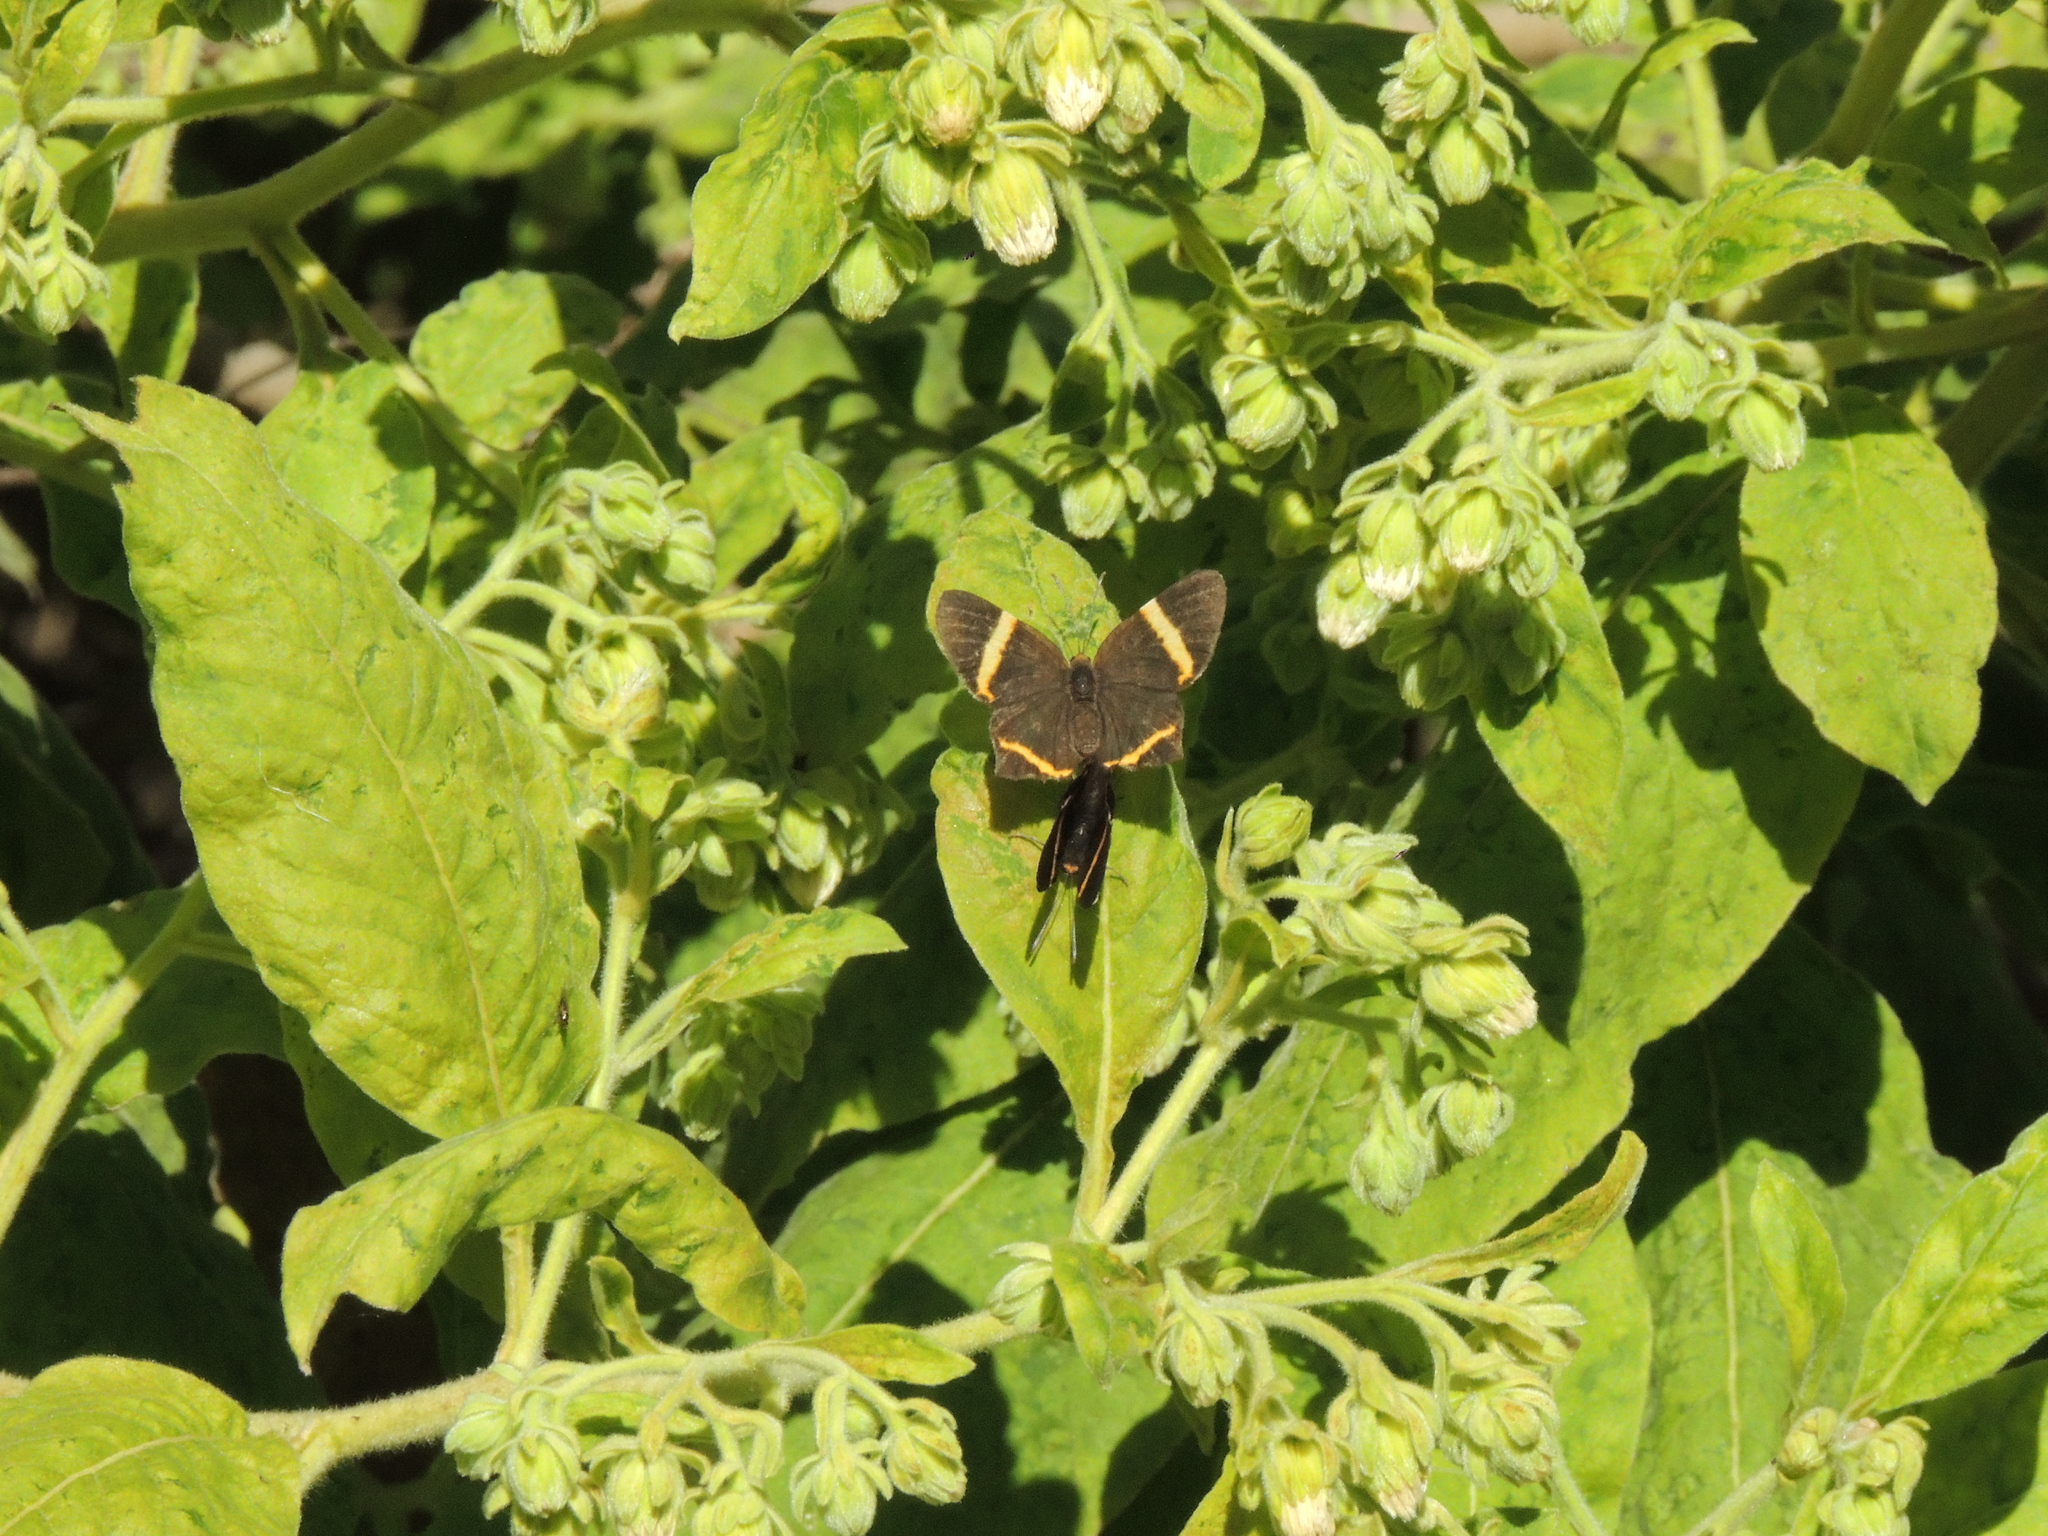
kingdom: Animalia
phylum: Arthropoda
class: Insecta
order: Lepidoptera
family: Riodinidae
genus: Riodina
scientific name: Riodina lysippoides
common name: Little dancer metalmark
